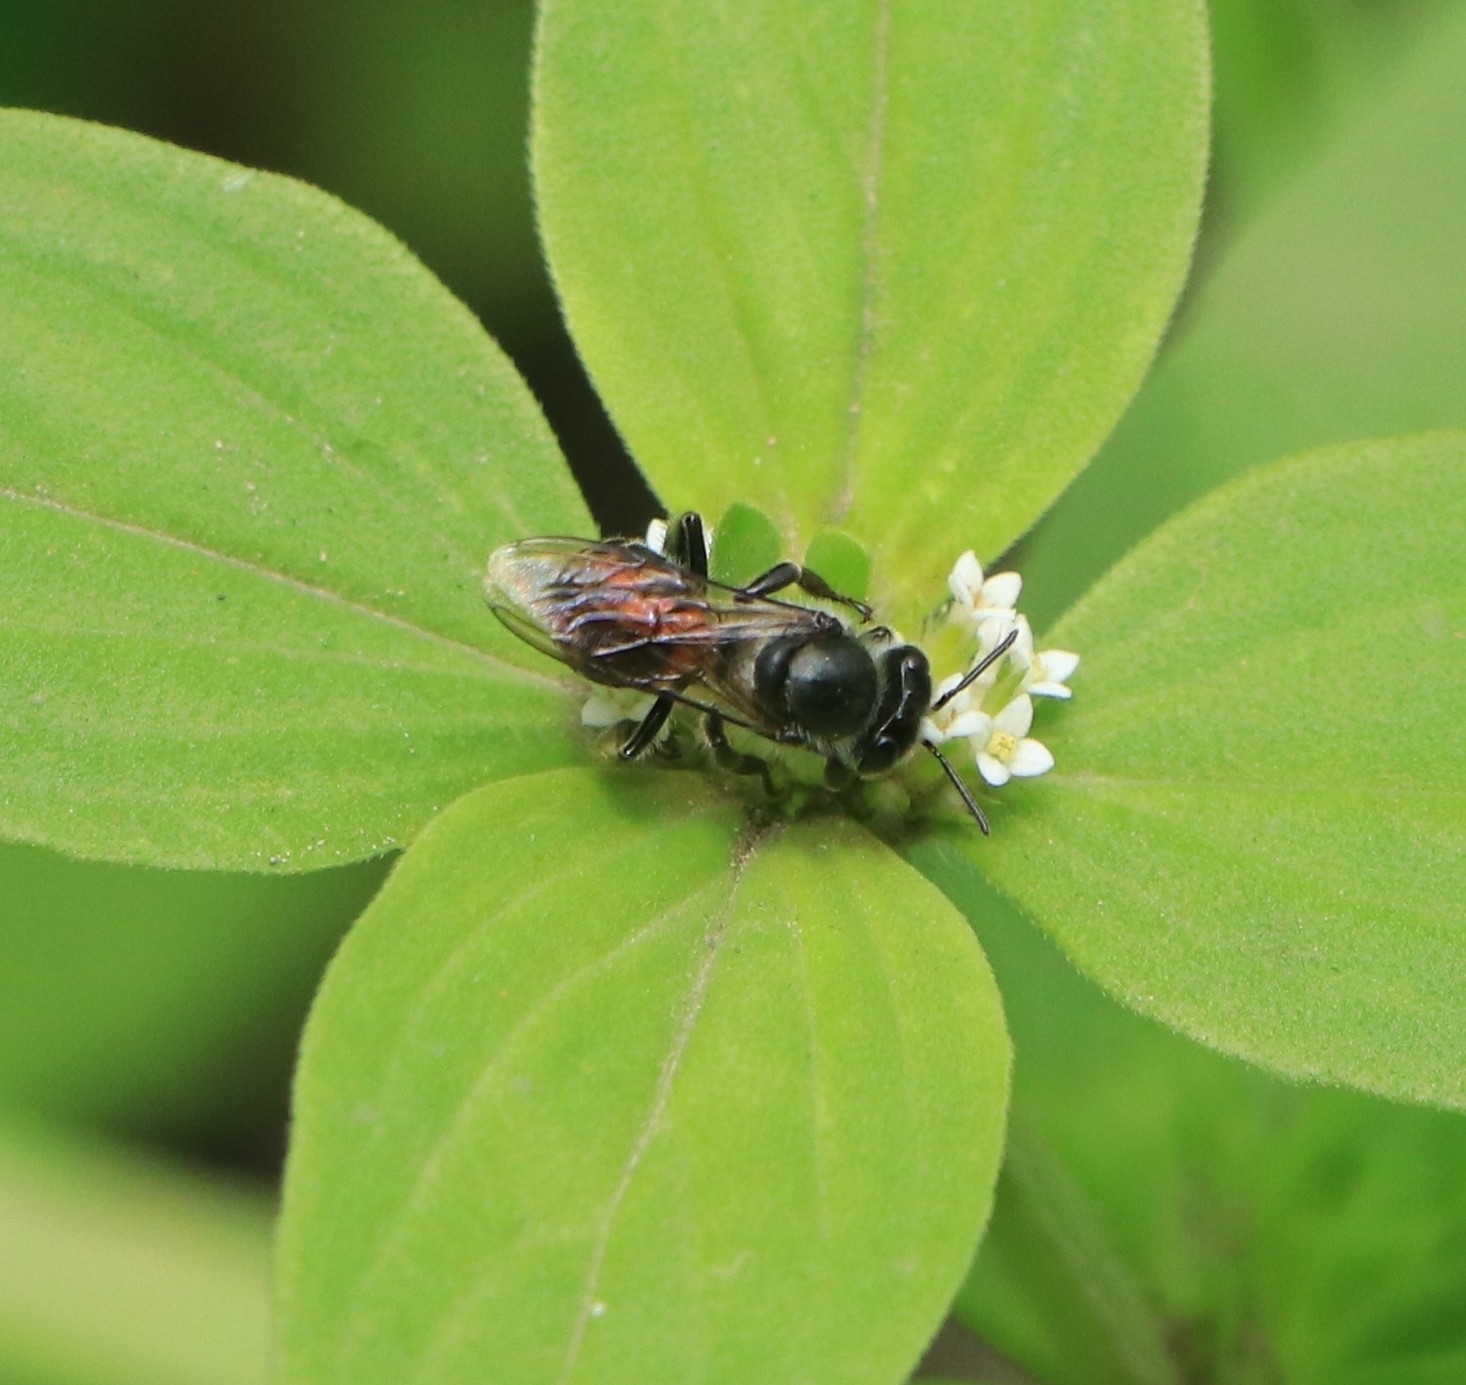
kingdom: Animalia
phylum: Arthropoda
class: Insecta
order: Hymenoptera
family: Apidae
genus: Apis
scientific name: Apis florea
